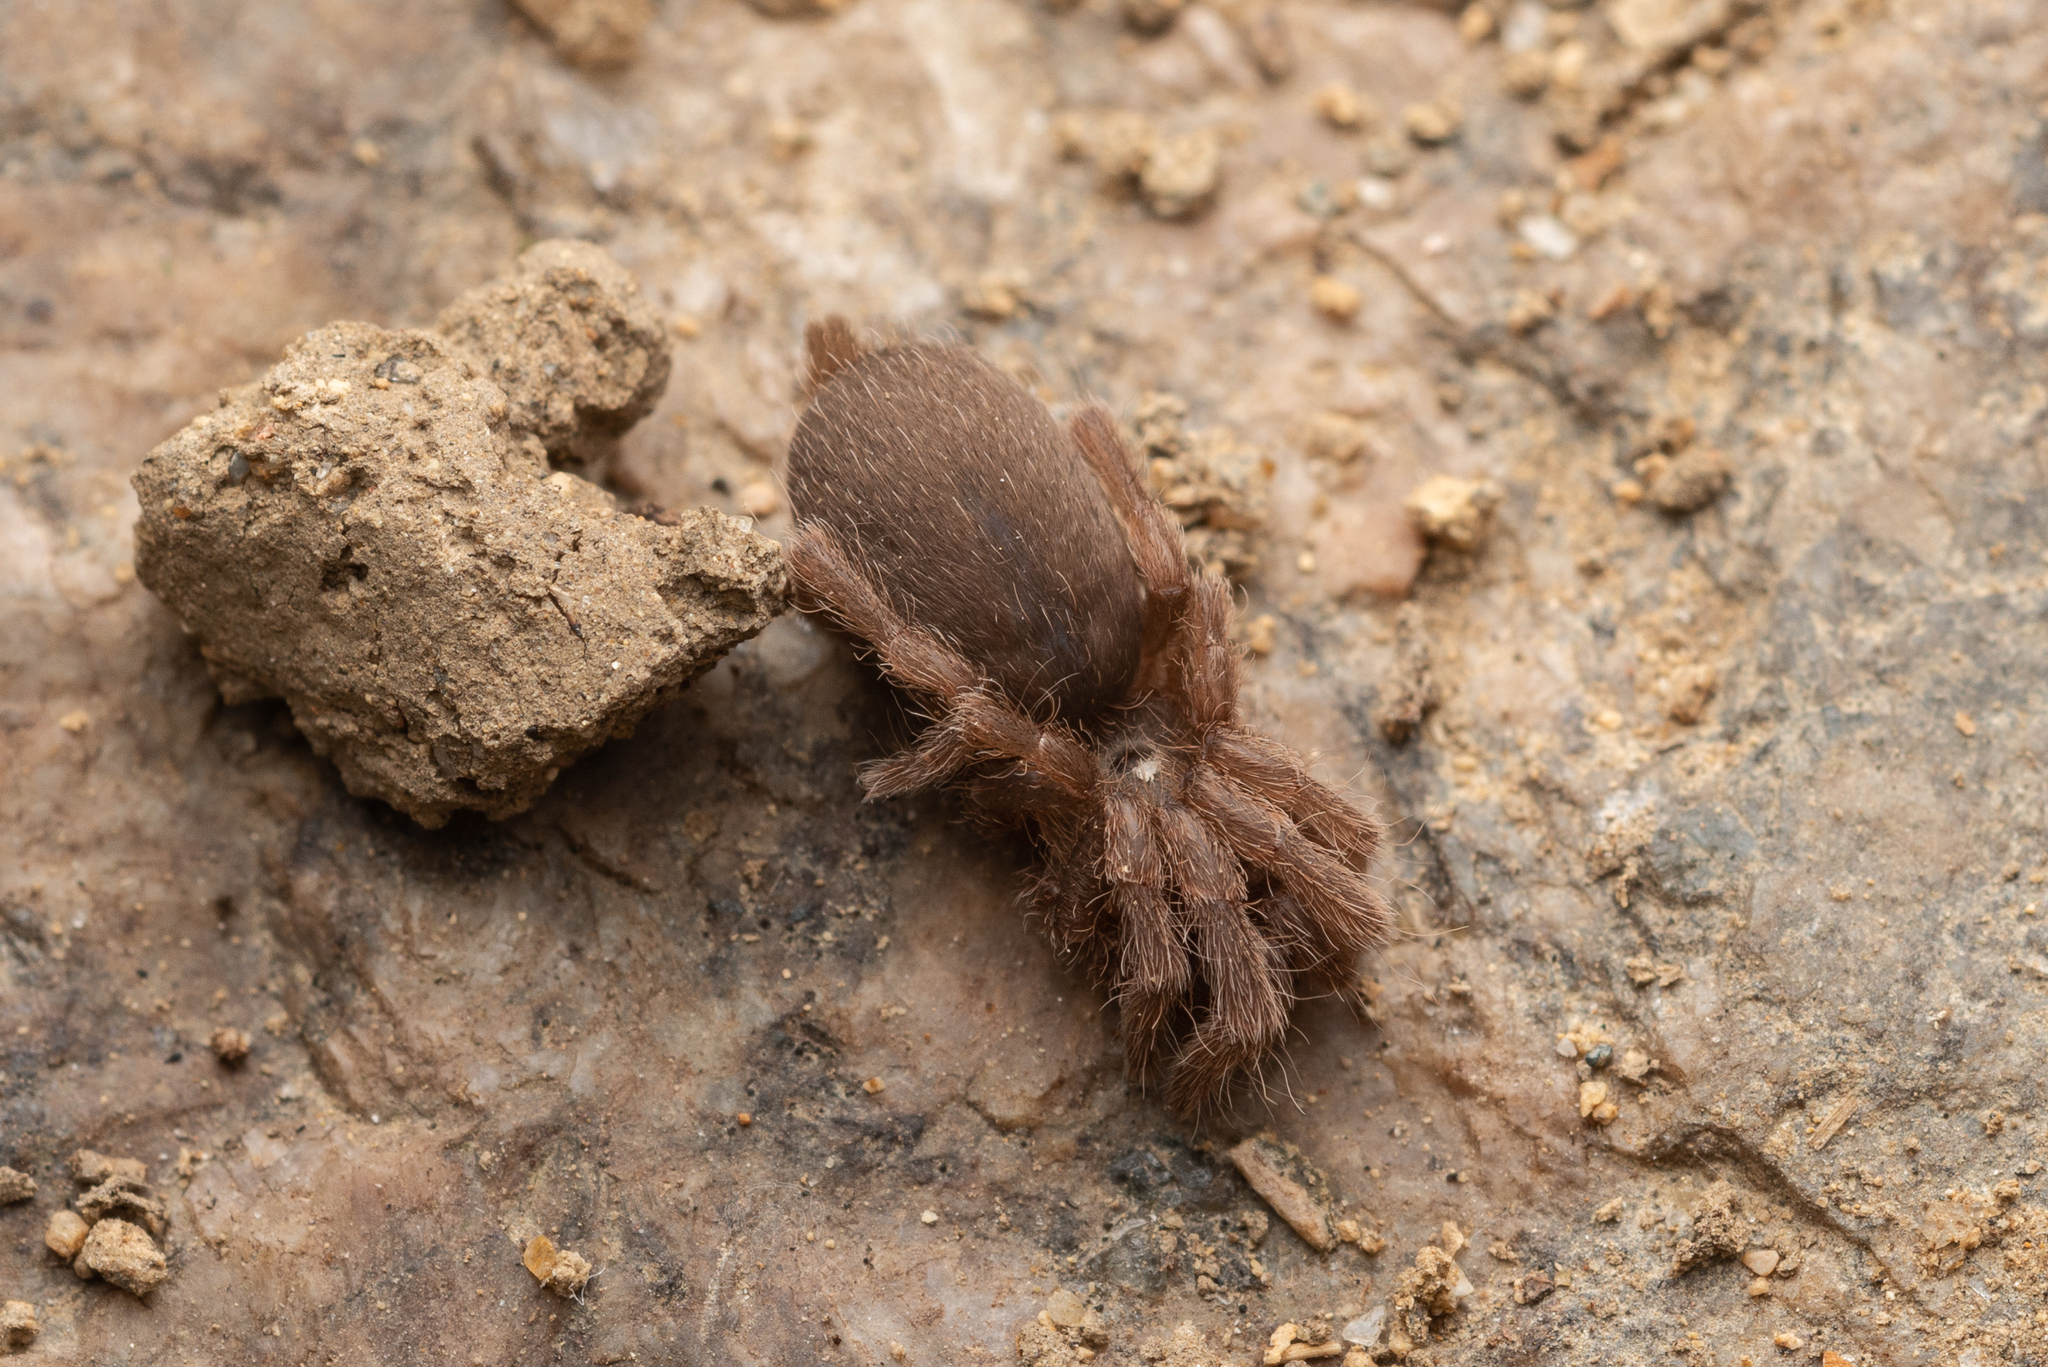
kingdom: Animalia
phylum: Arthropoda
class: Arachnida
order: Araneae
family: Theraphosidae
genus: Phlogiellus
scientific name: Phlogiellus
